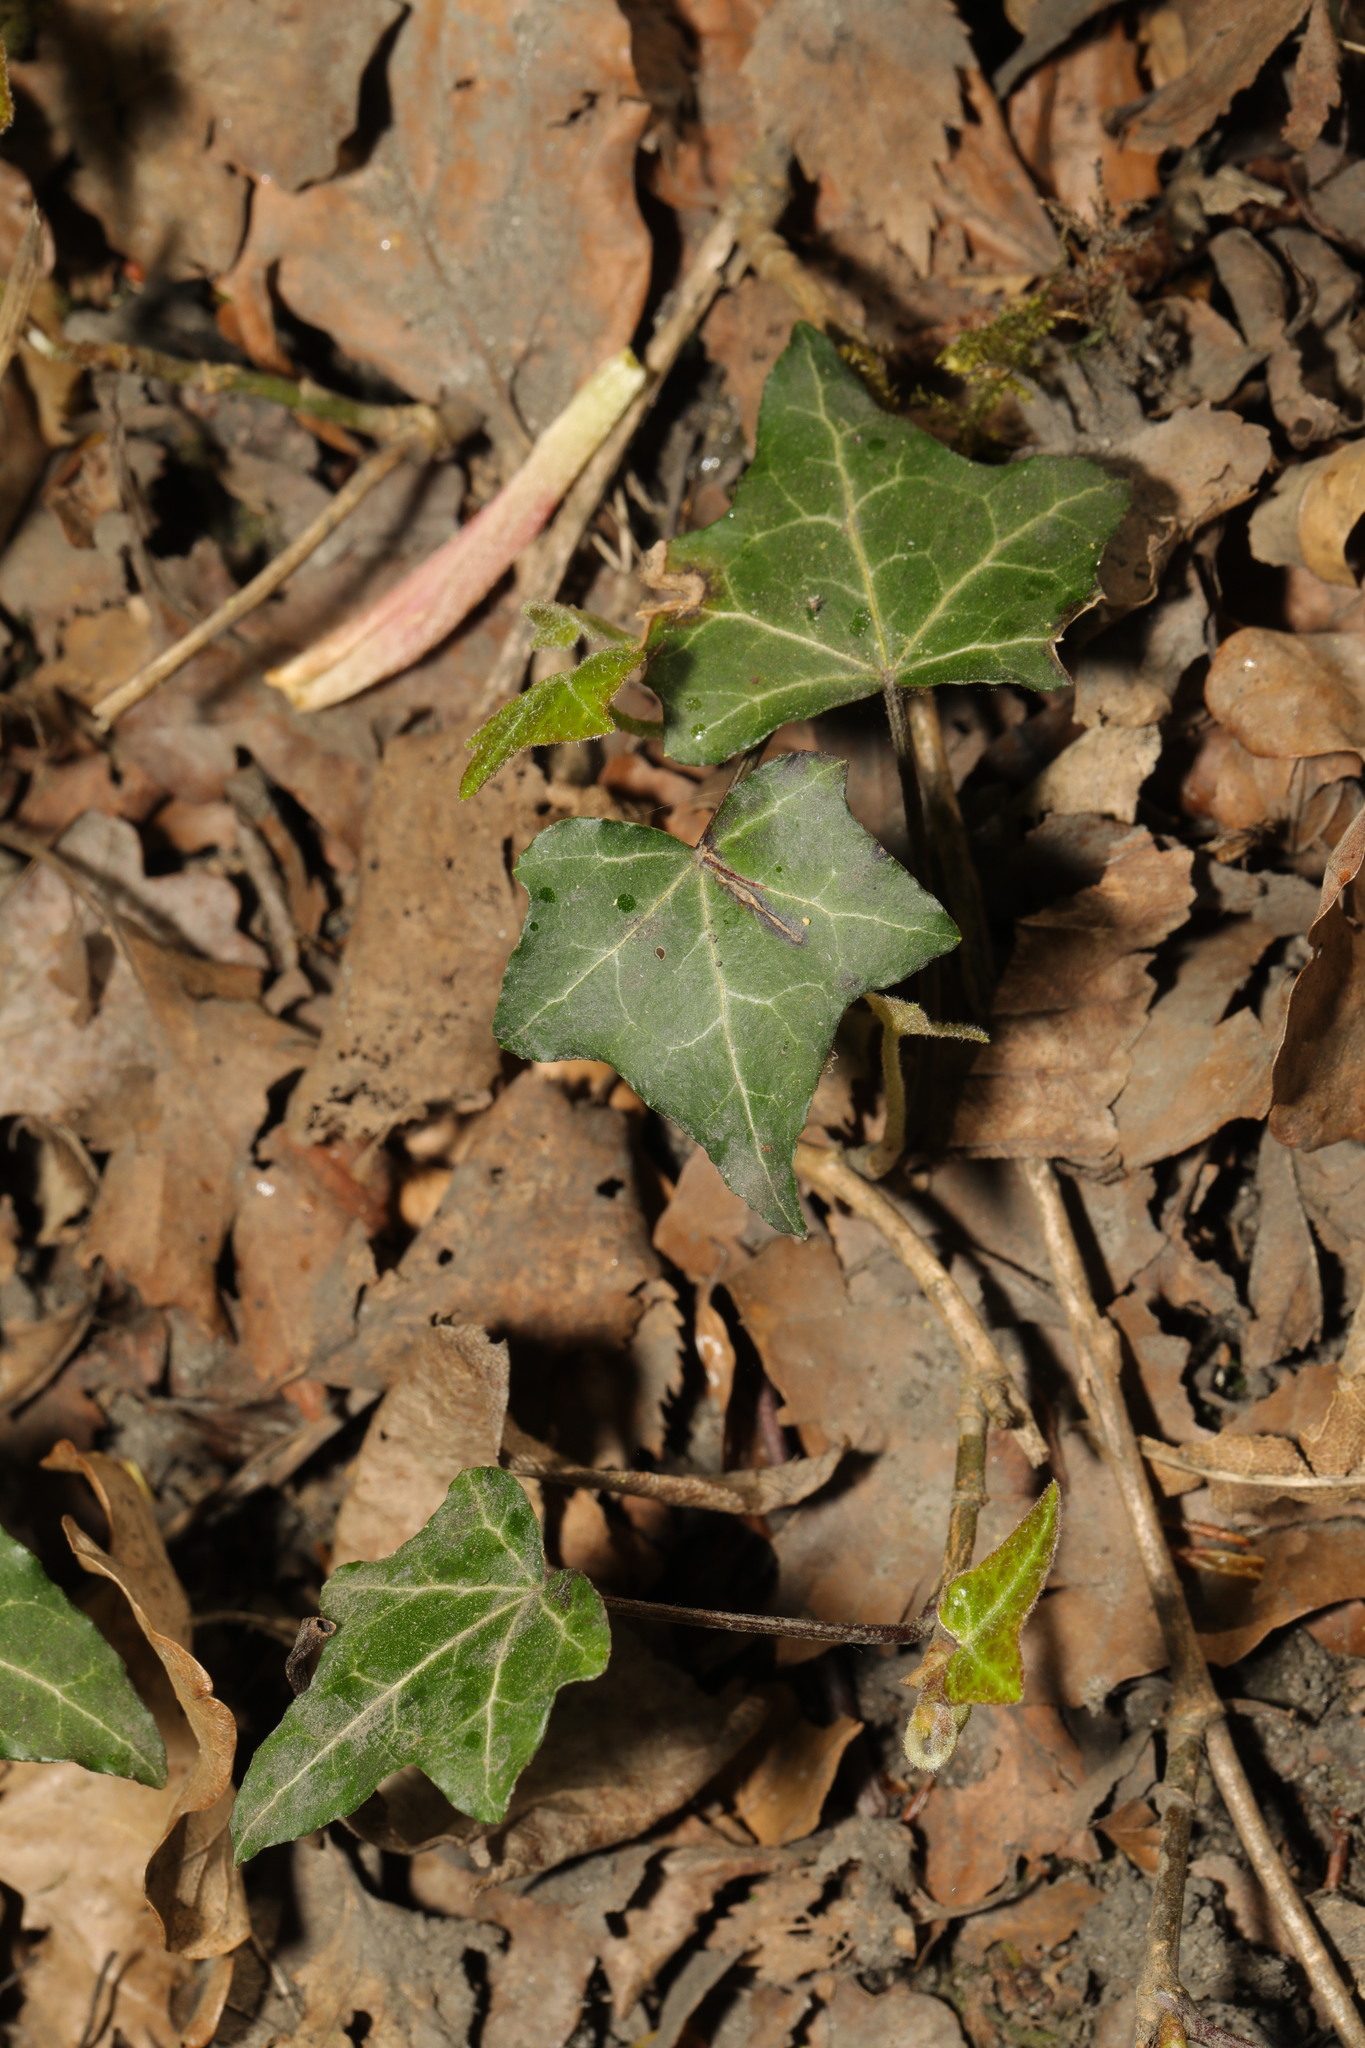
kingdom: Plantae
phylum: Tracheophyta
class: Magnoliopsida
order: Apiales
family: Araliaceae
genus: Hedera
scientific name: Hedera helix
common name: Ivy
